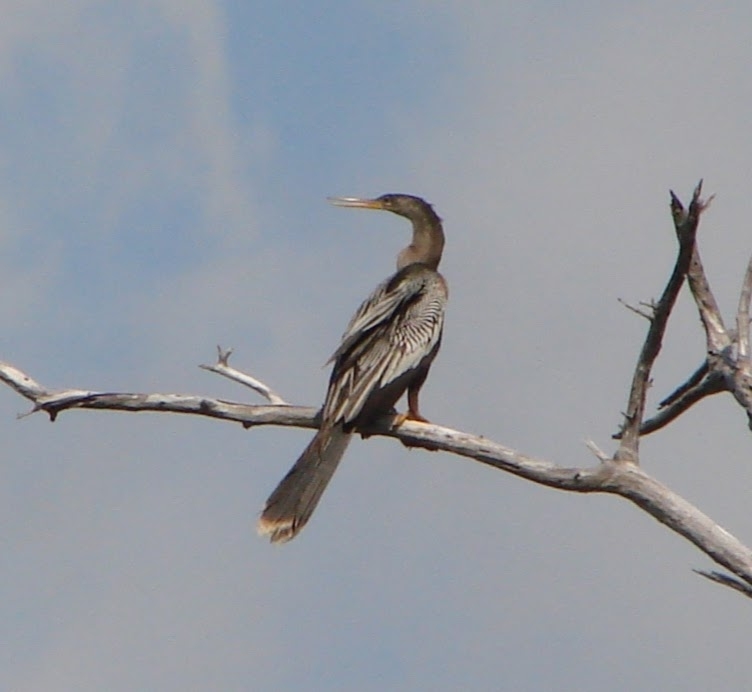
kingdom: Animalia
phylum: Chordata
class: Aves
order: Suliformes
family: Anhingidae
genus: Anhinga
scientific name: Anhinga anhinga
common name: Anhinga
